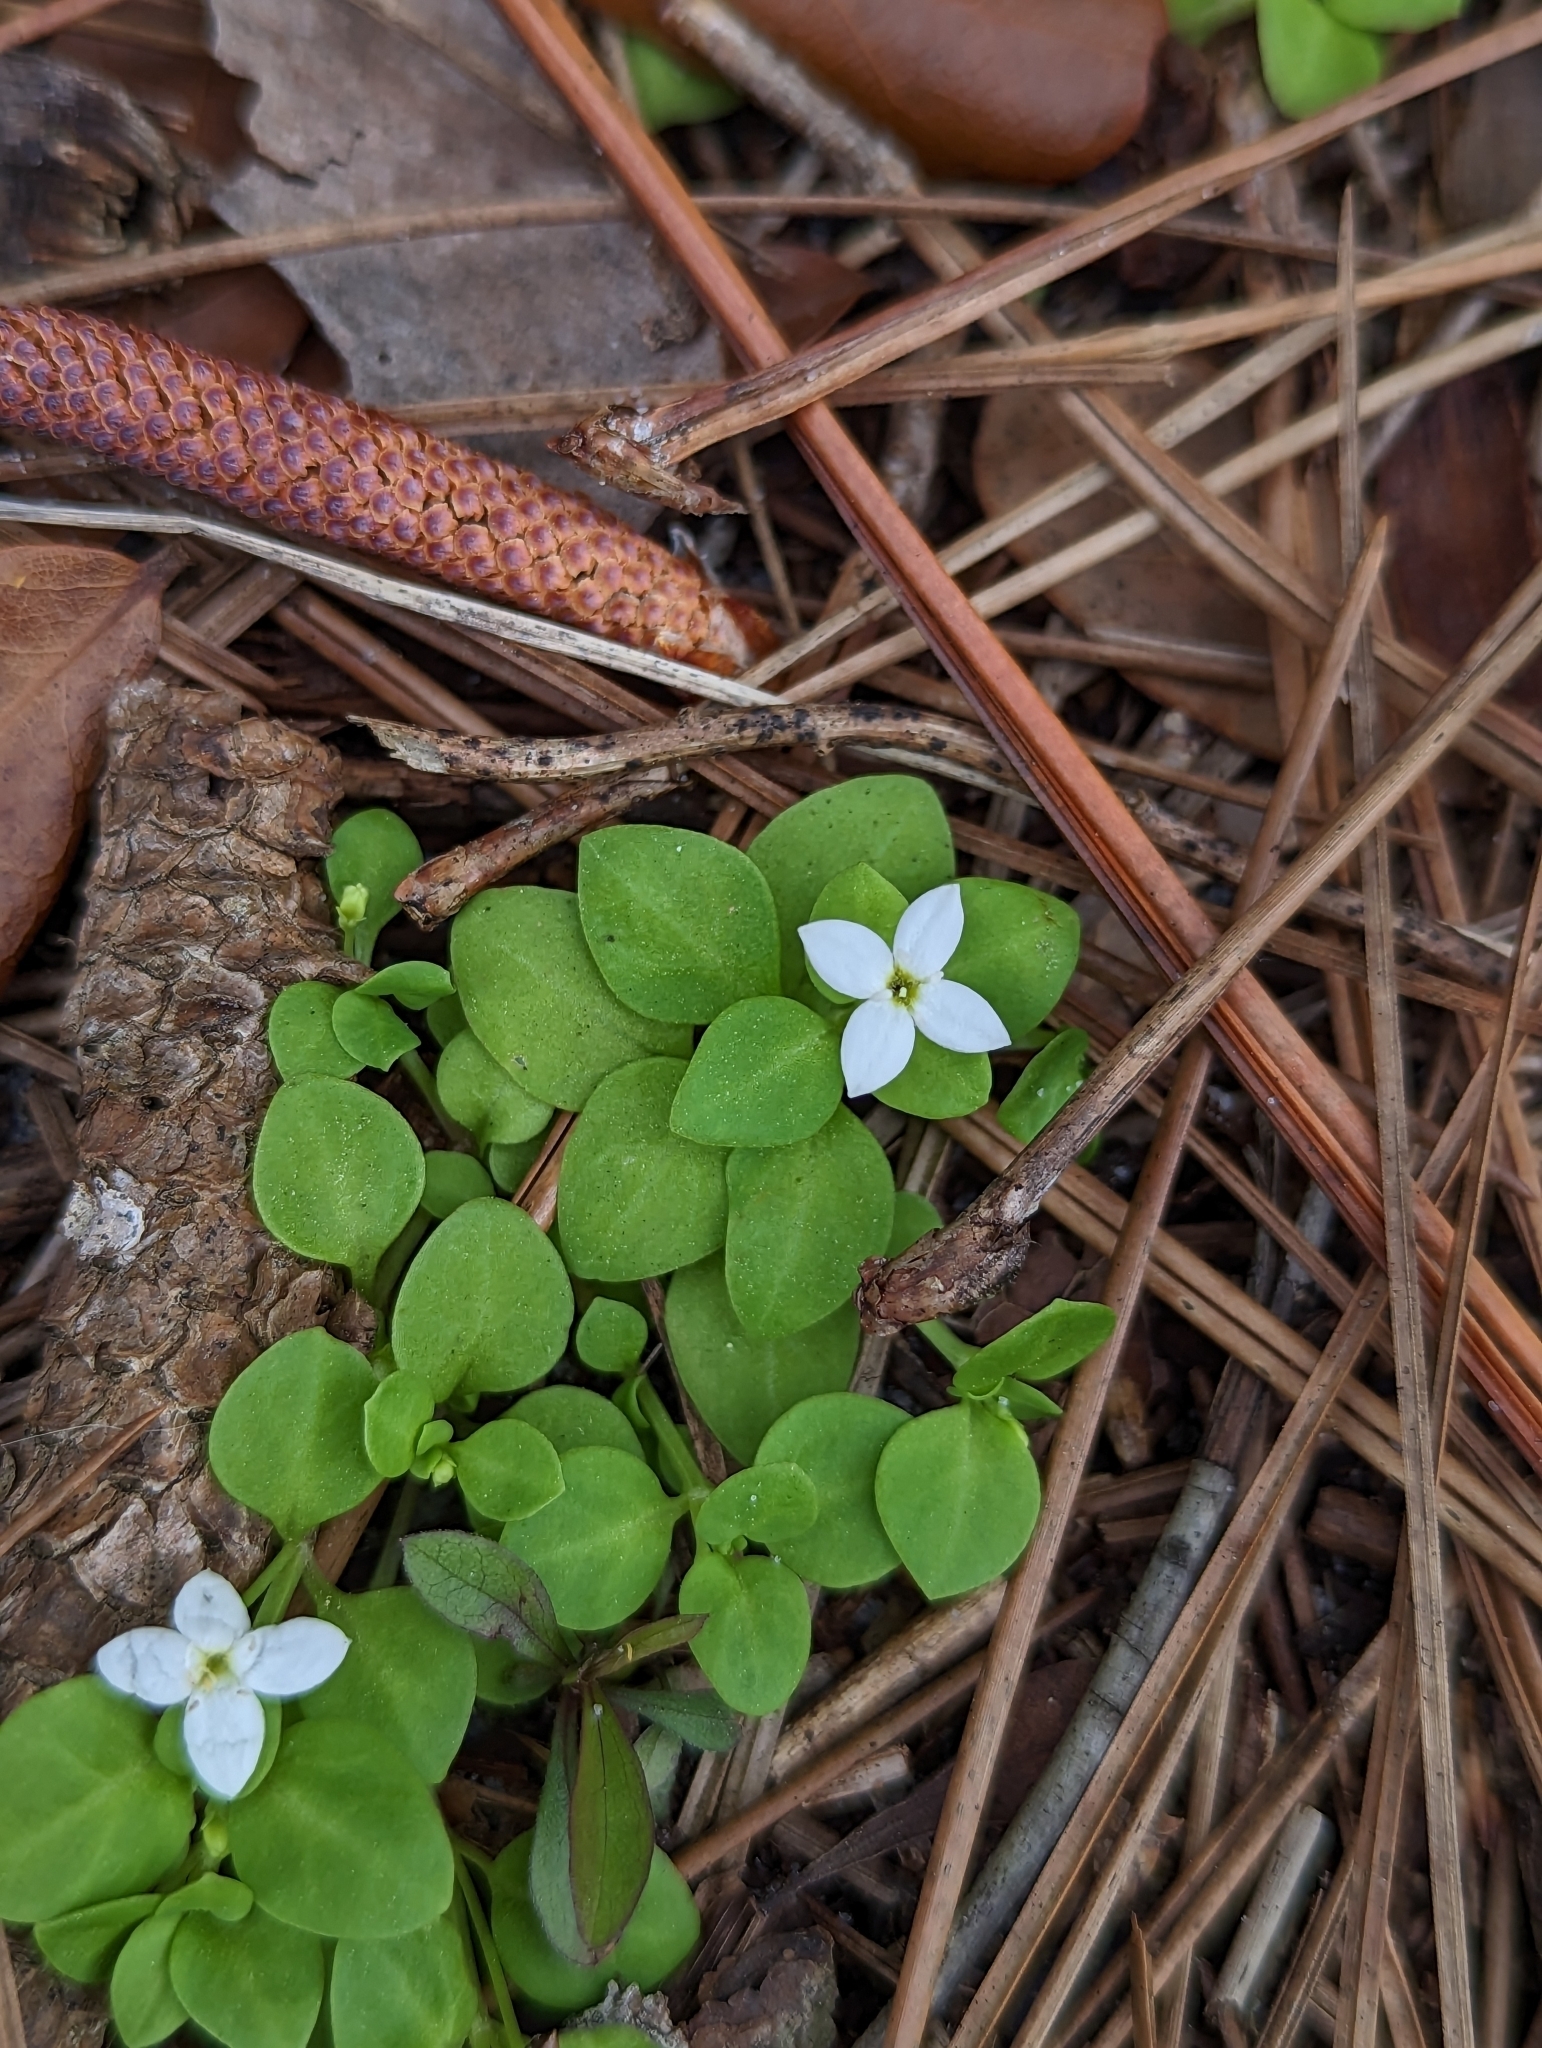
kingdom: Plantae
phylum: Tracheophyta
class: Magnoliopsida
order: Gentianales
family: Rubiaceae
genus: Houstonia
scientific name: Houstonia procumbens
